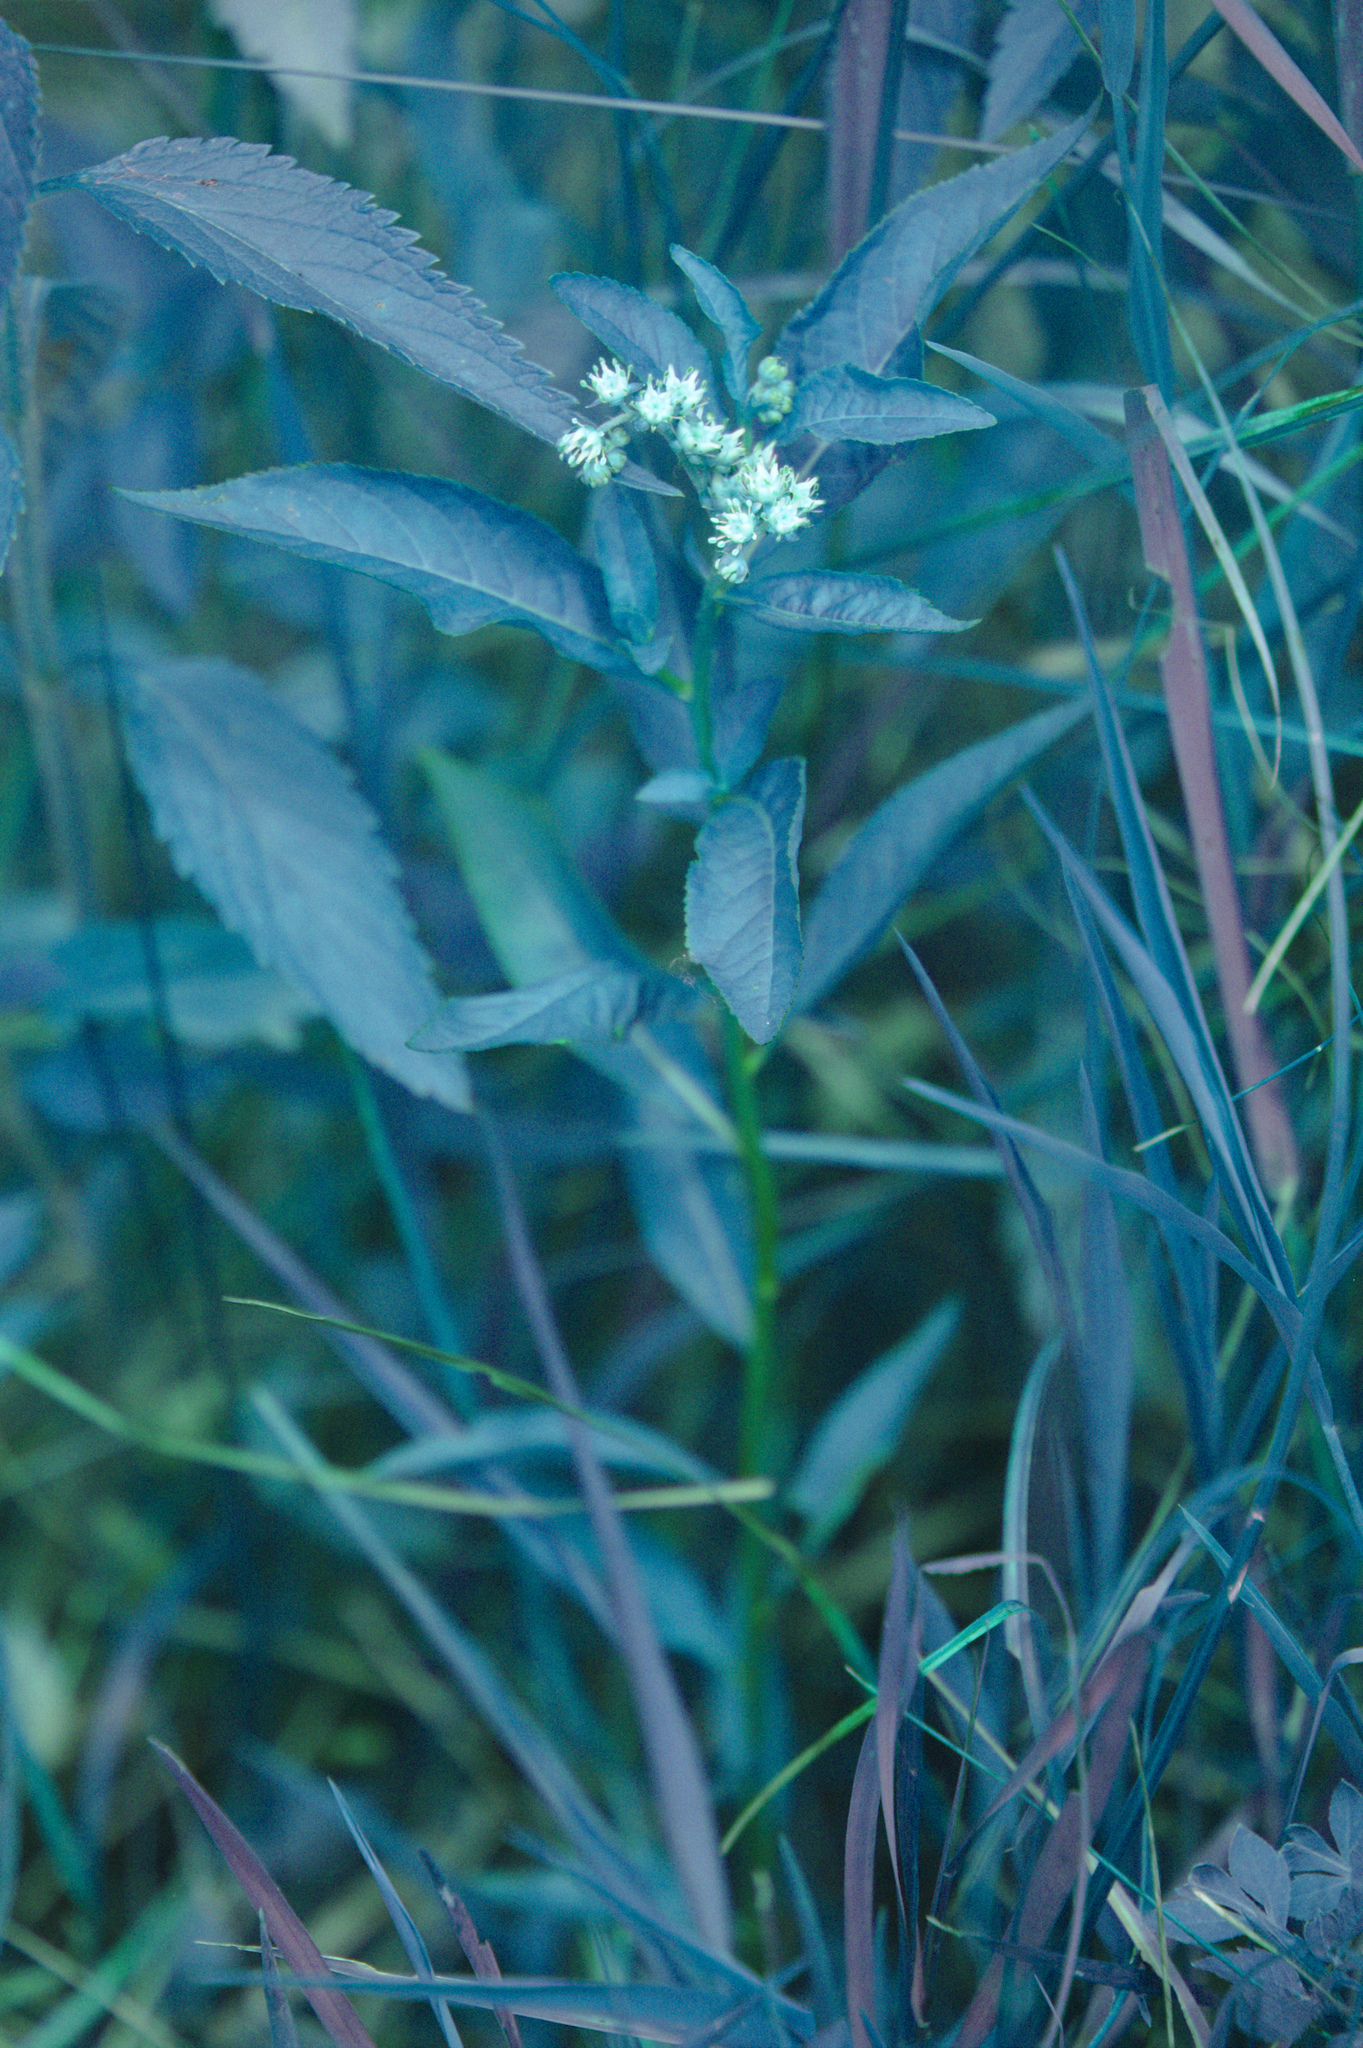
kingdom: Plantae
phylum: Tracheophyta
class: Magnoliopsida
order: Saxifragales
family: Penthoraceae
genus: Penthorum
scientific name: Penthorum sedoides
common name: Ditch stonecrop
